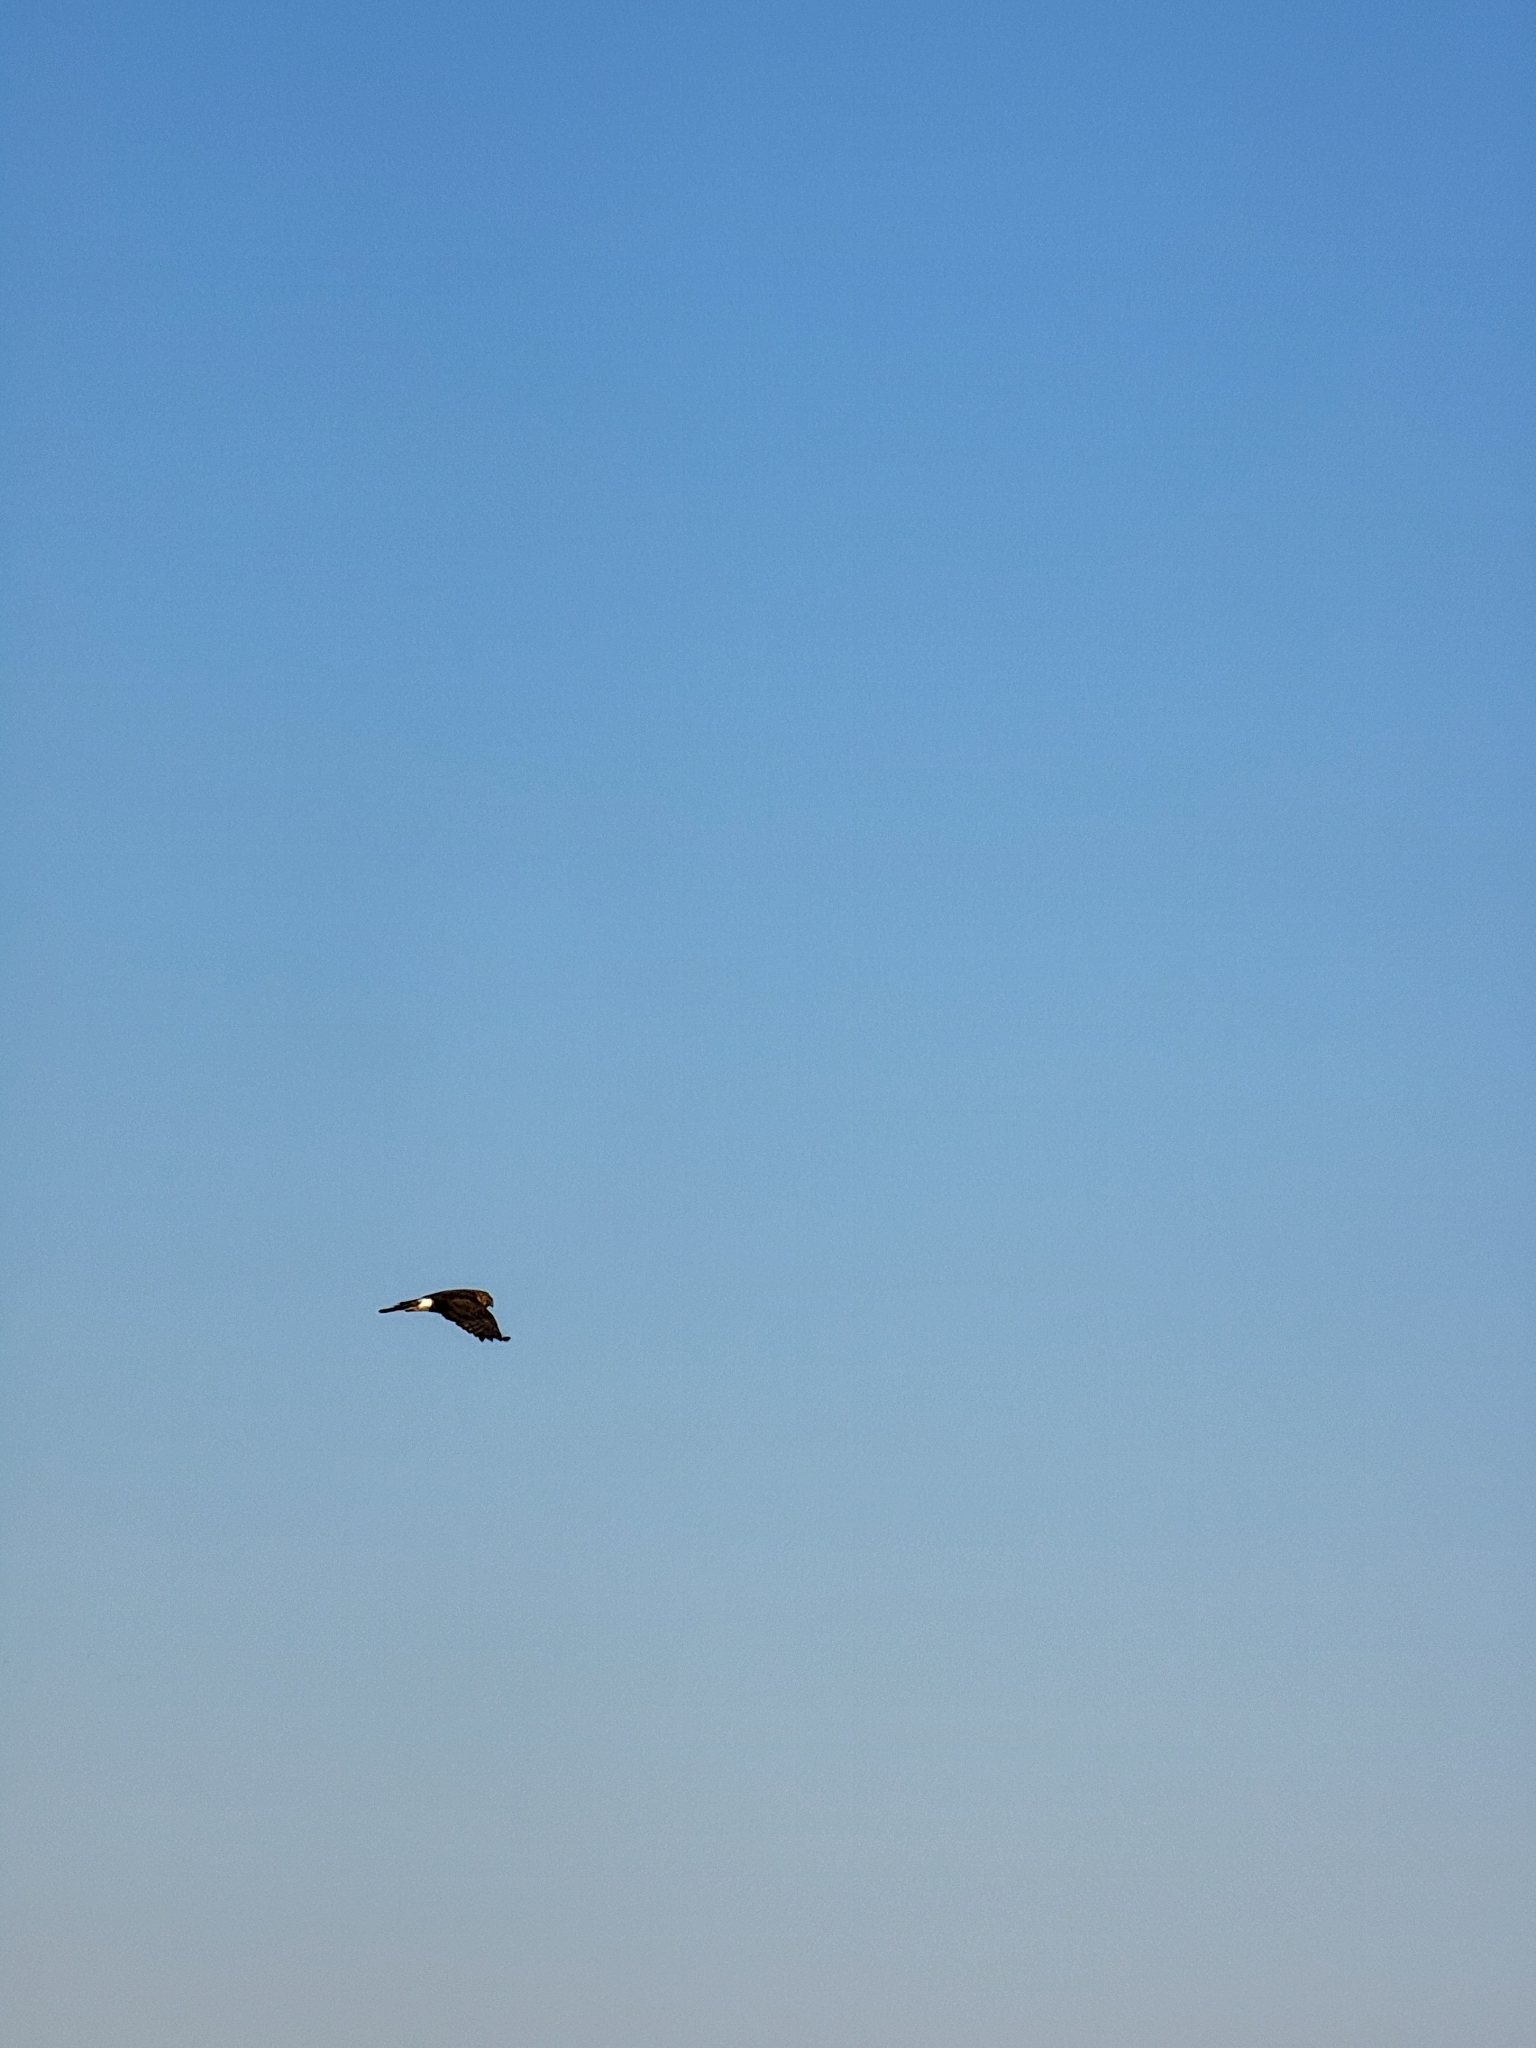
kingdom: Animalia
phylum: Chordata
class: Aves
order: Accipitriformes
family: Accipitridae
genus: Circus
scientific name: Circus cyaneus
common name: Hen harrier
